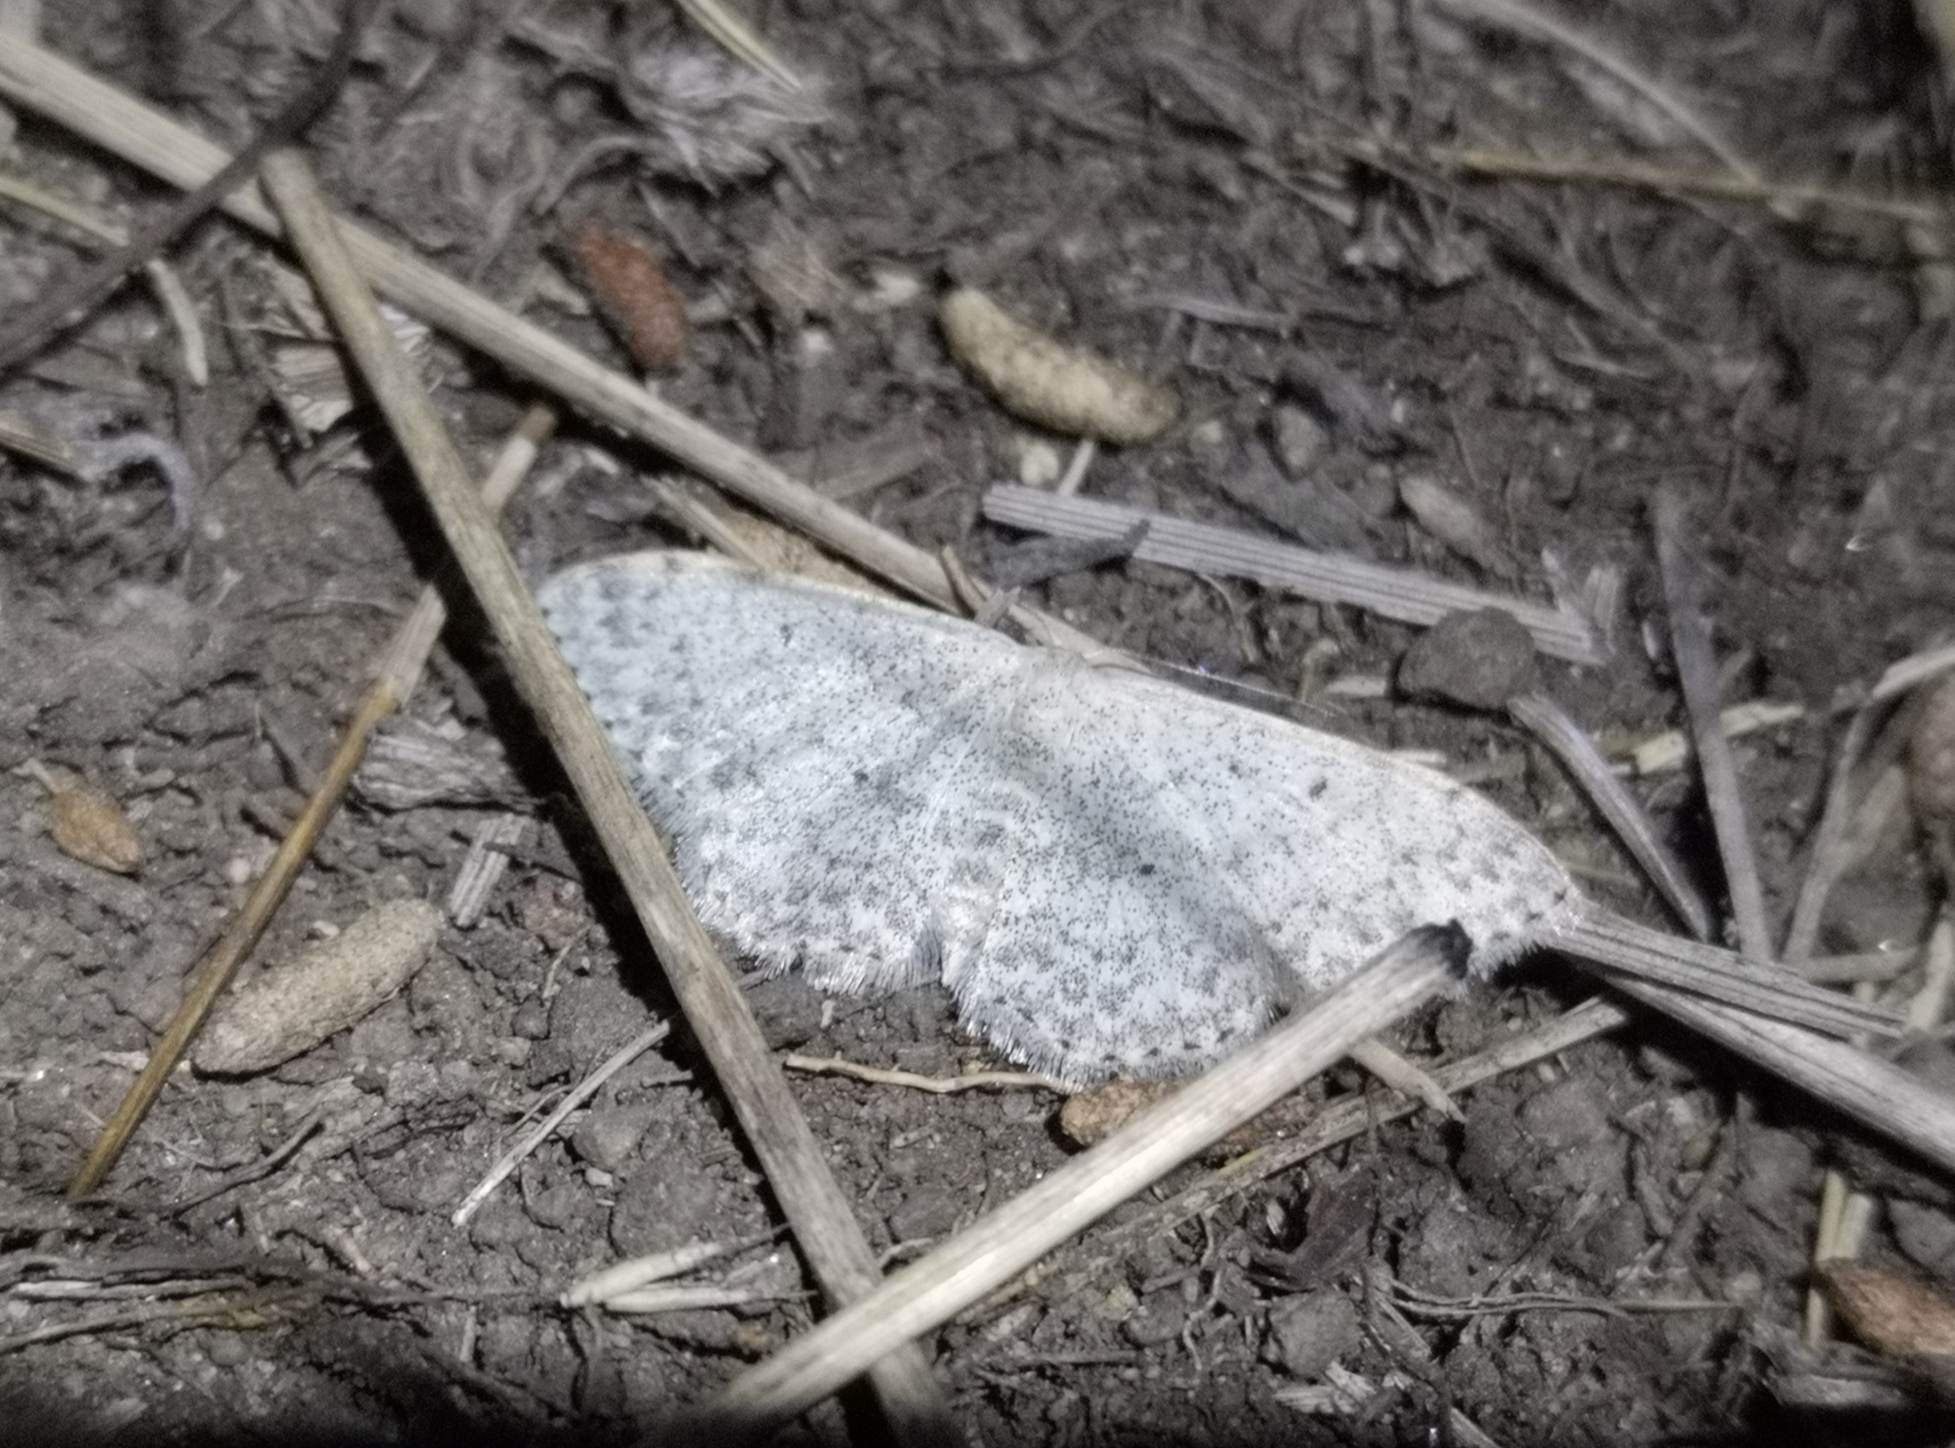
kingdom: Animalia
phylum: Arthropoda
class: Insecta
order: Lepidoptera
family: Geometridae
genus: Scopula
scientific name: Scopula marginepunctata
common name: Mullein wave
